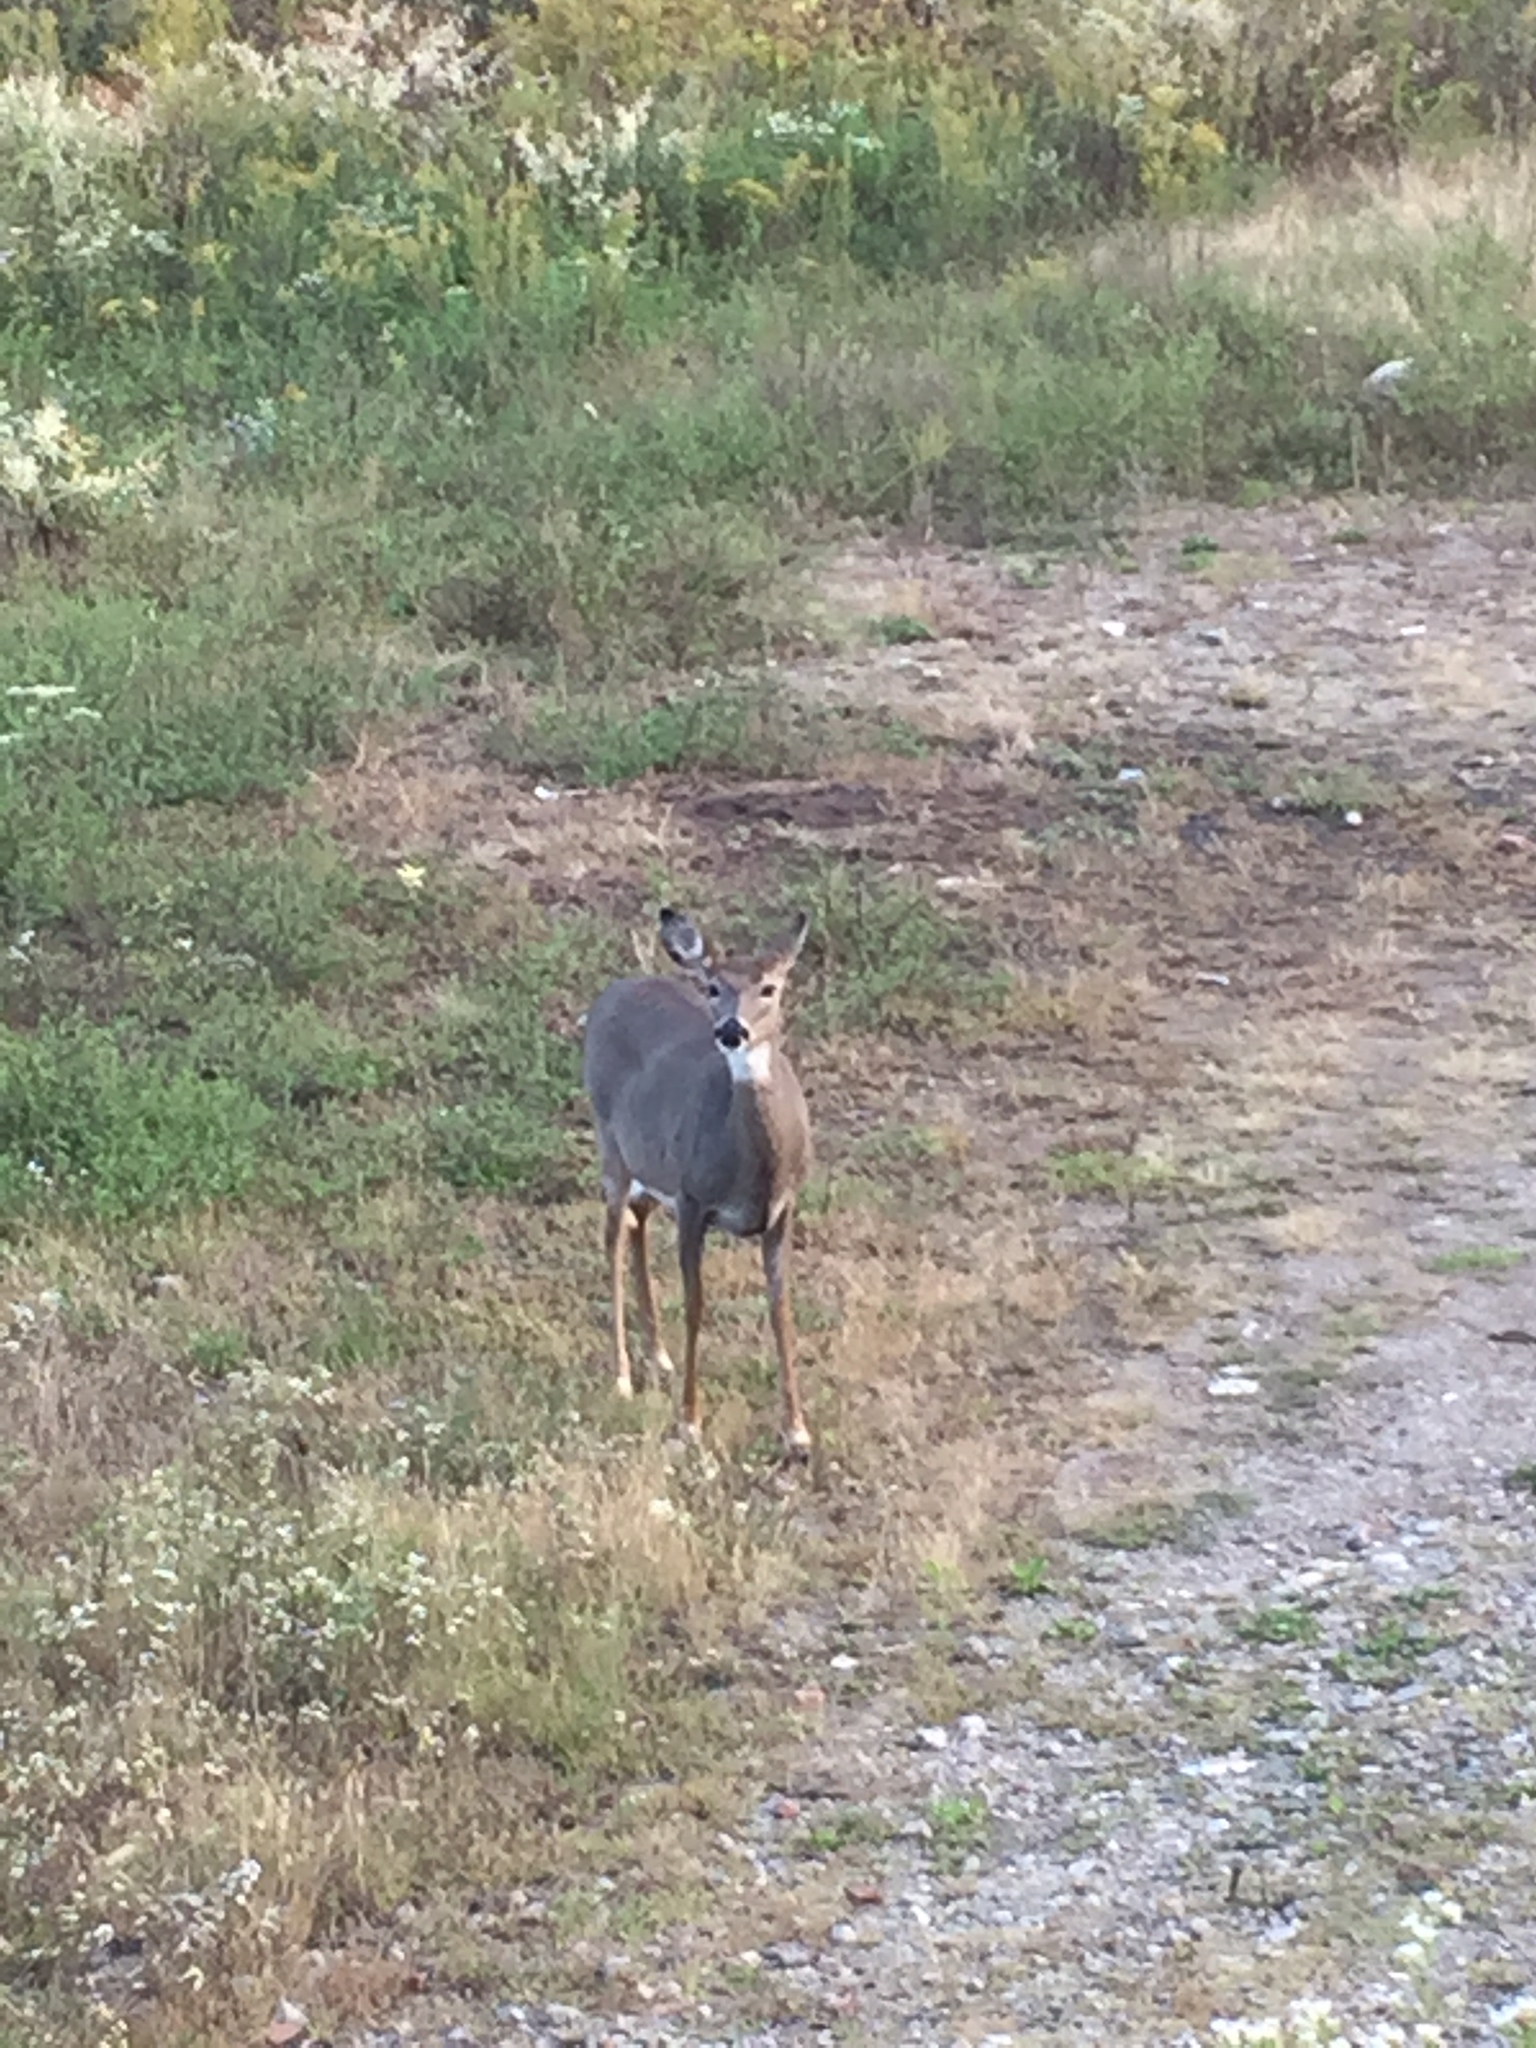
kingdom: Animalia
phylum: Chordata
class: Mammalia
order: Artiodactyla
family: Cervidae
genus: Odocoileus
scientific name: Odocoileus virginianus
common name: White-tailed deer
